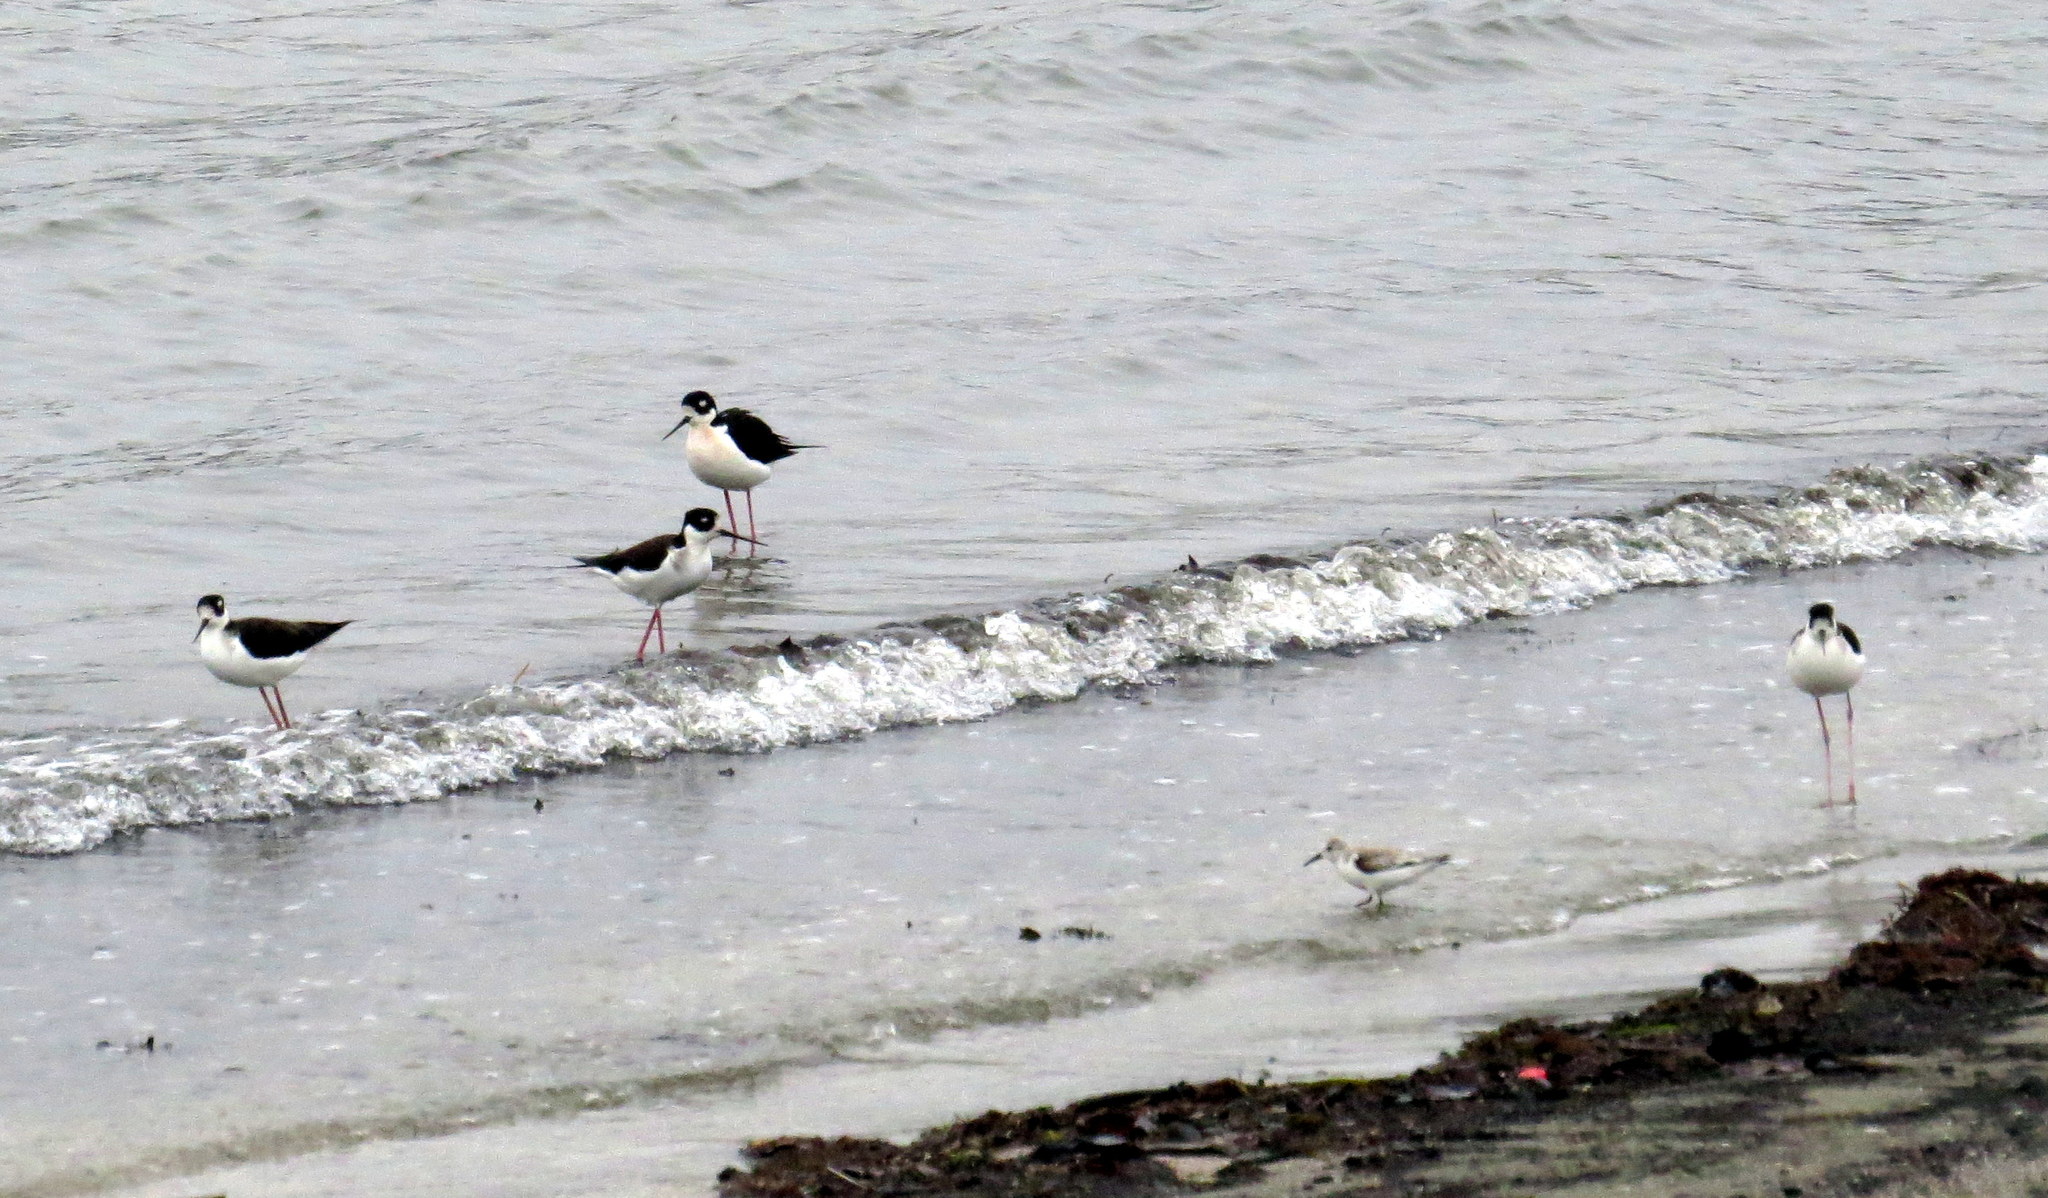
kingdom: Animalia
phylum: Chordata
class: Aves
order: Charadriiformes
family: Recurvirostridae
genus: Himantopus
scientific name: Himantopus mexicanus
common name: Black-necked stilt
